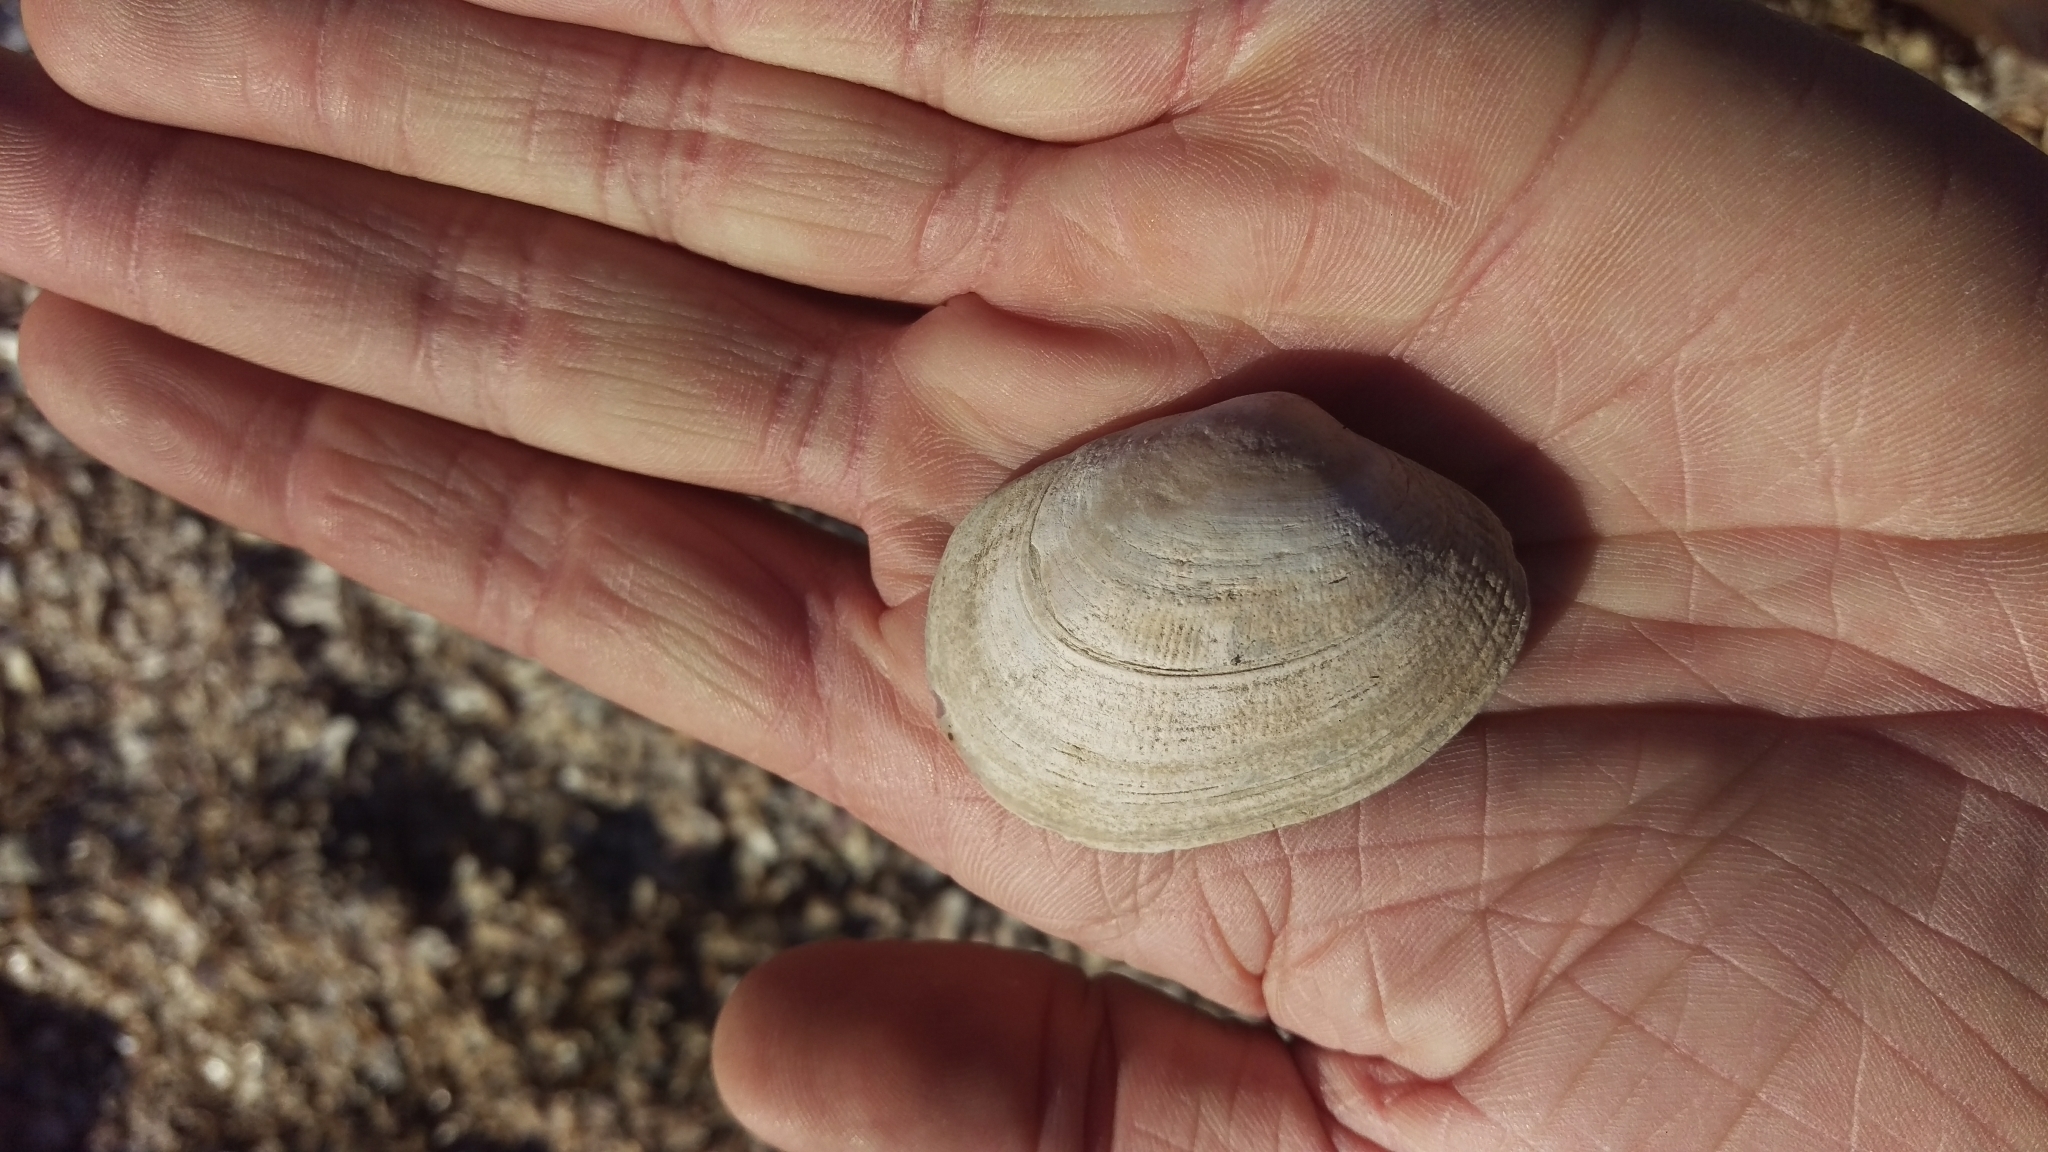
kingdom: Animalia
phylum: Mollusca
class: Bivalvia
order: Venerida
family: Veneridae
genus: Ruditapes
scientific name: Ruditapes philippinarum
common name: Manila clam
